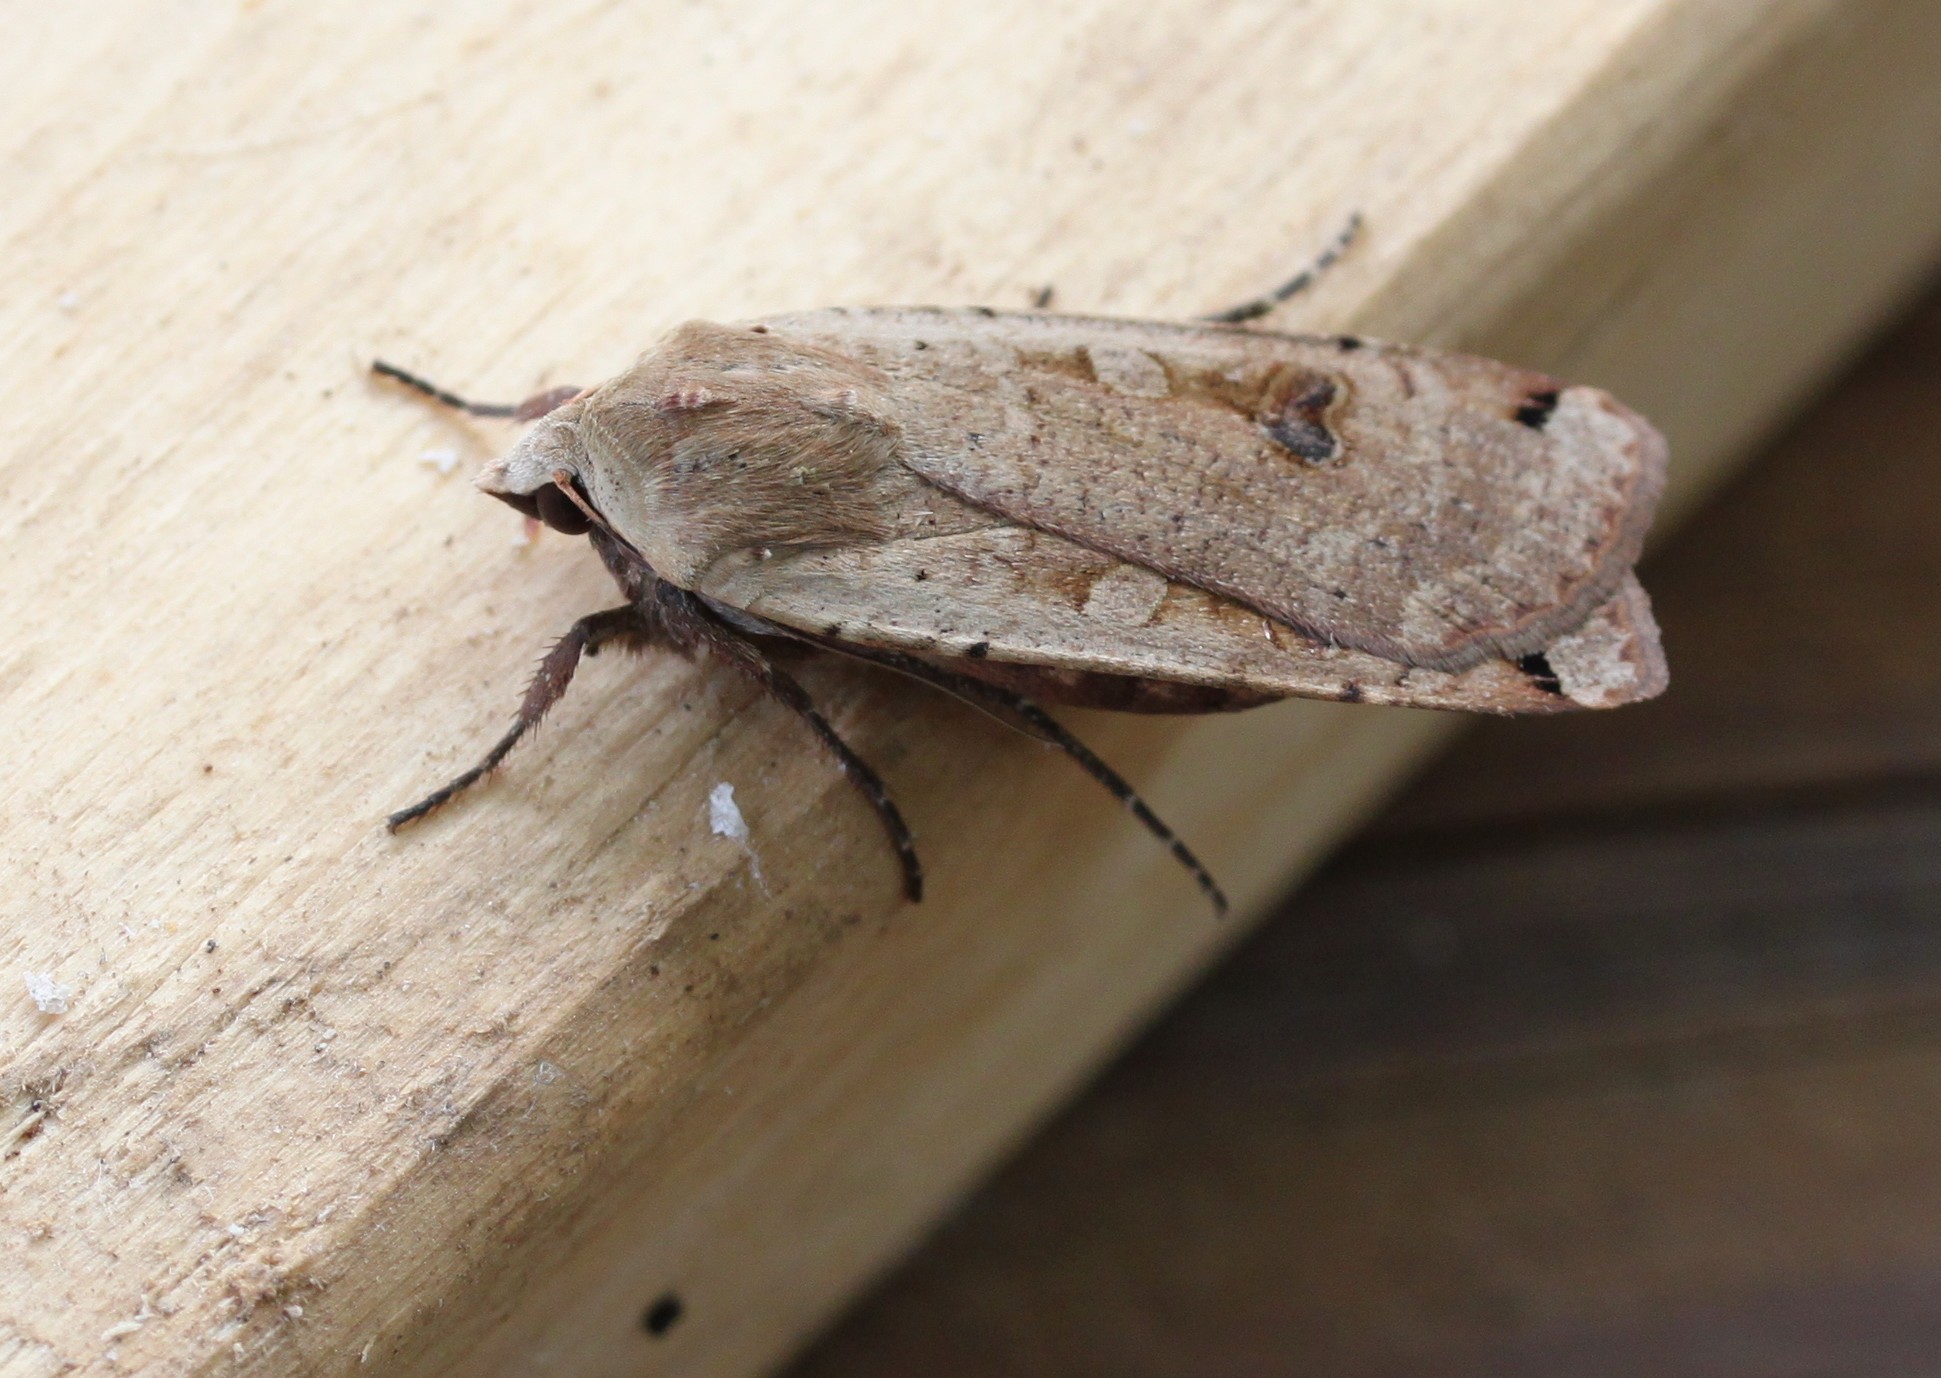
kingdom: Animalia
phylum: Arthropoda
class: Insecta
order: Lepidoptera
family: Noctuidae
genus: Noctua
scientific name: Noctua pronuba
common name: Large yellow underwing
